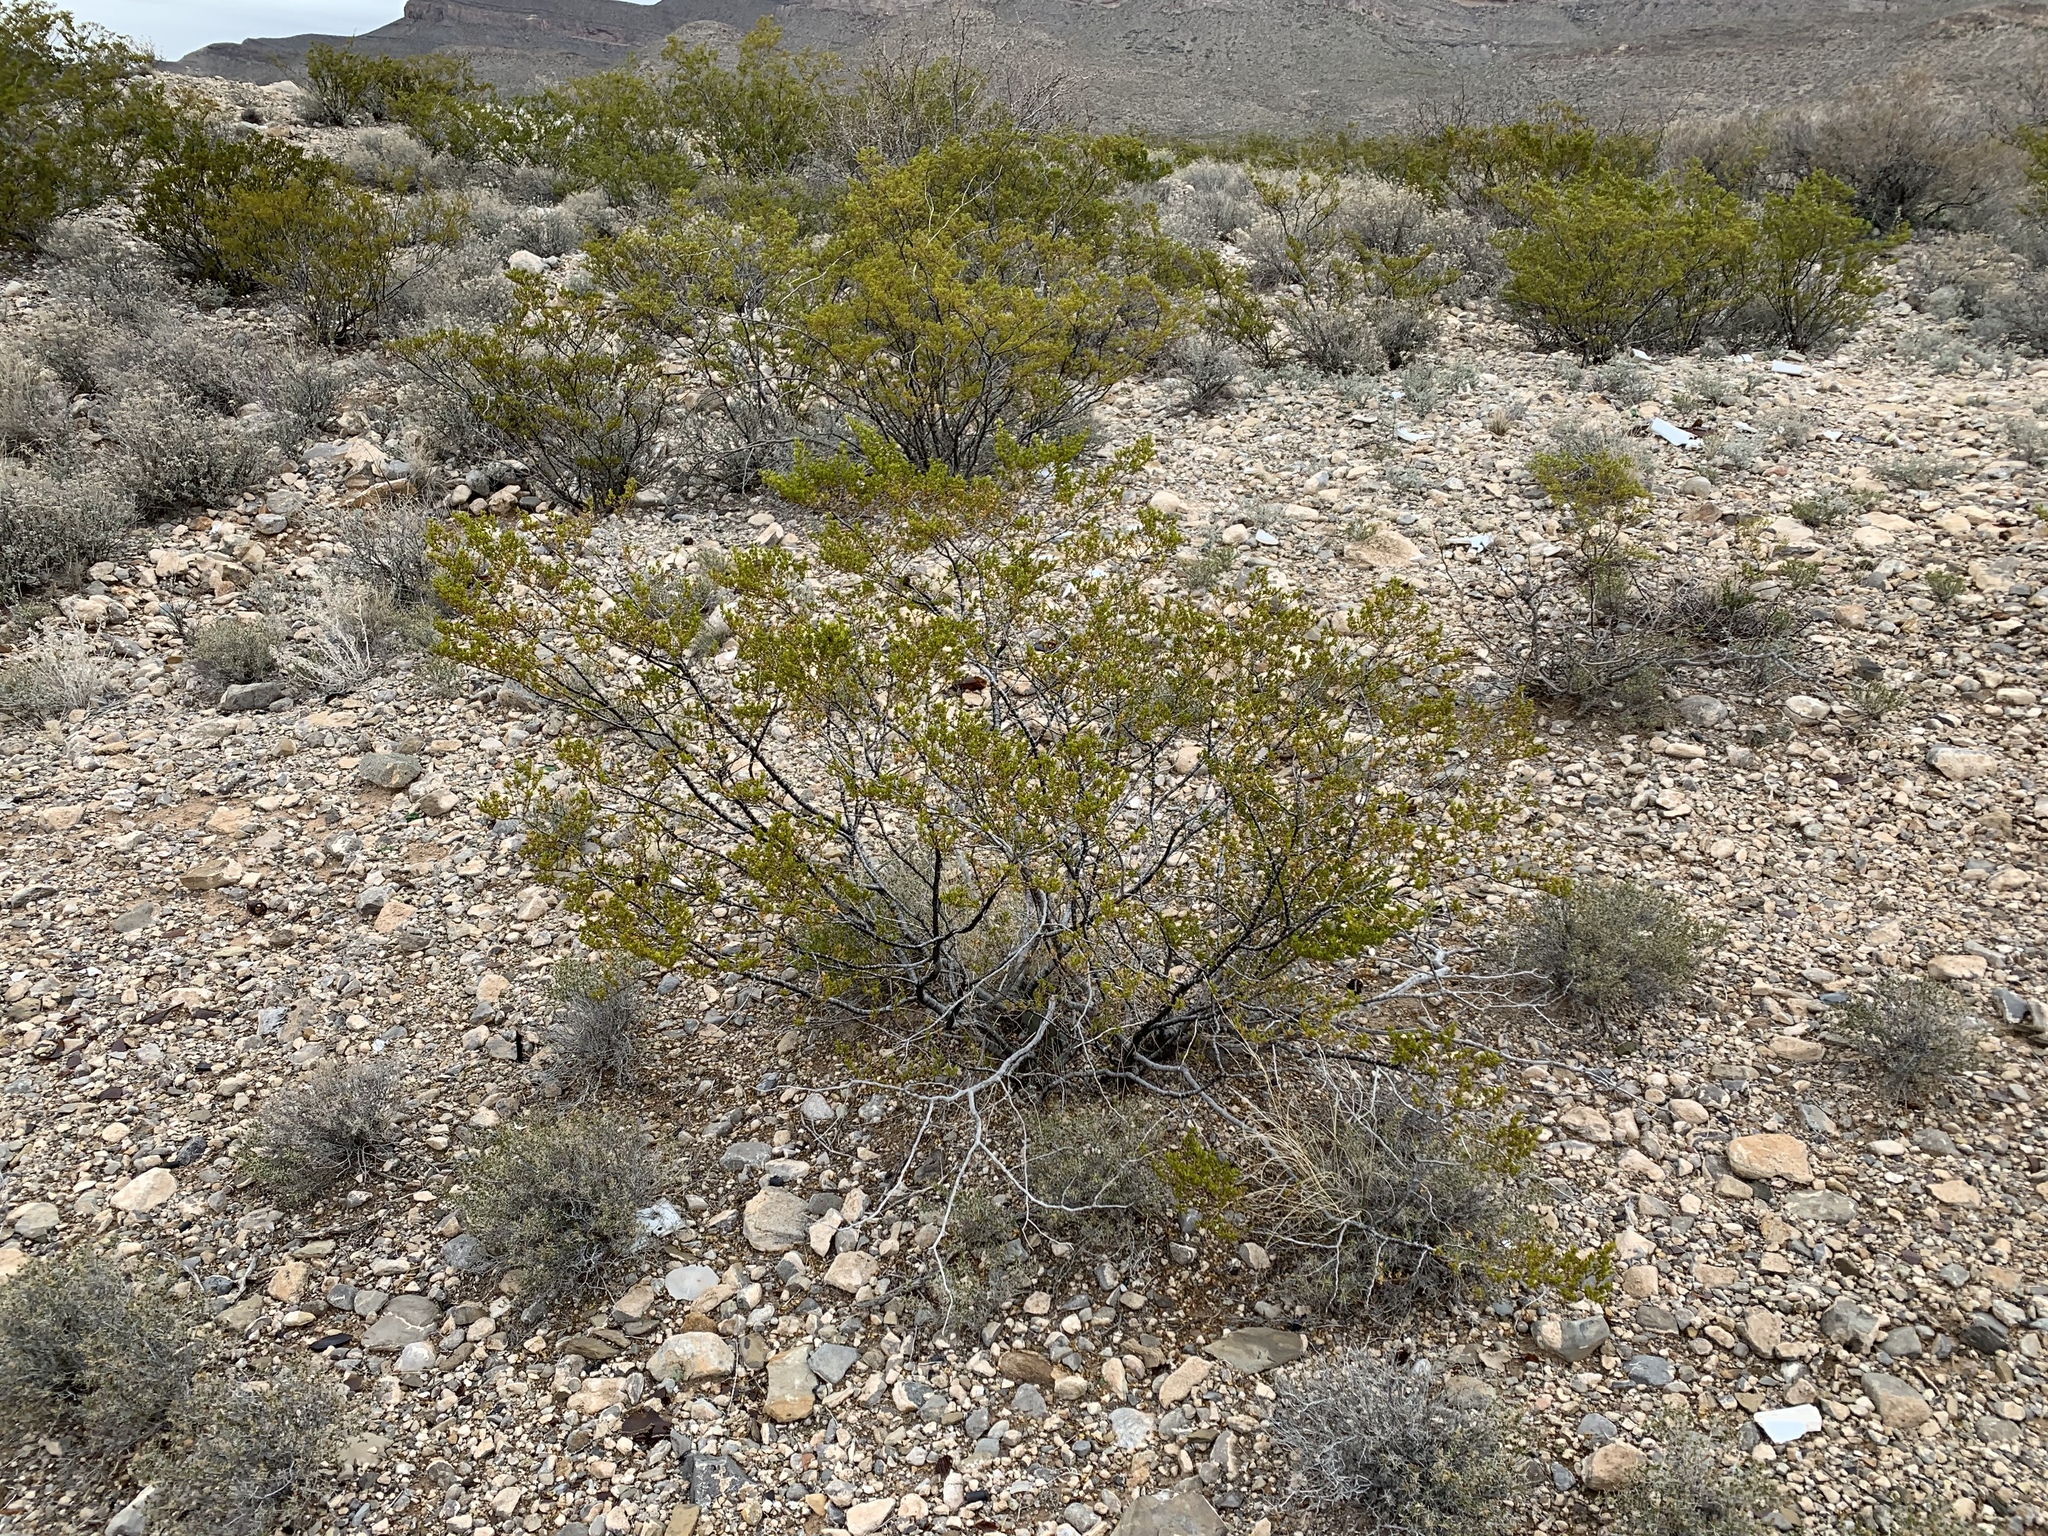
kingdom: Plantae
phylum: Tracheophyta
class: Magnoliopsida
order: Zygophyllales
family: Zygophyllaceae
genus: Larrea
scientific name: Larrea tridentata
